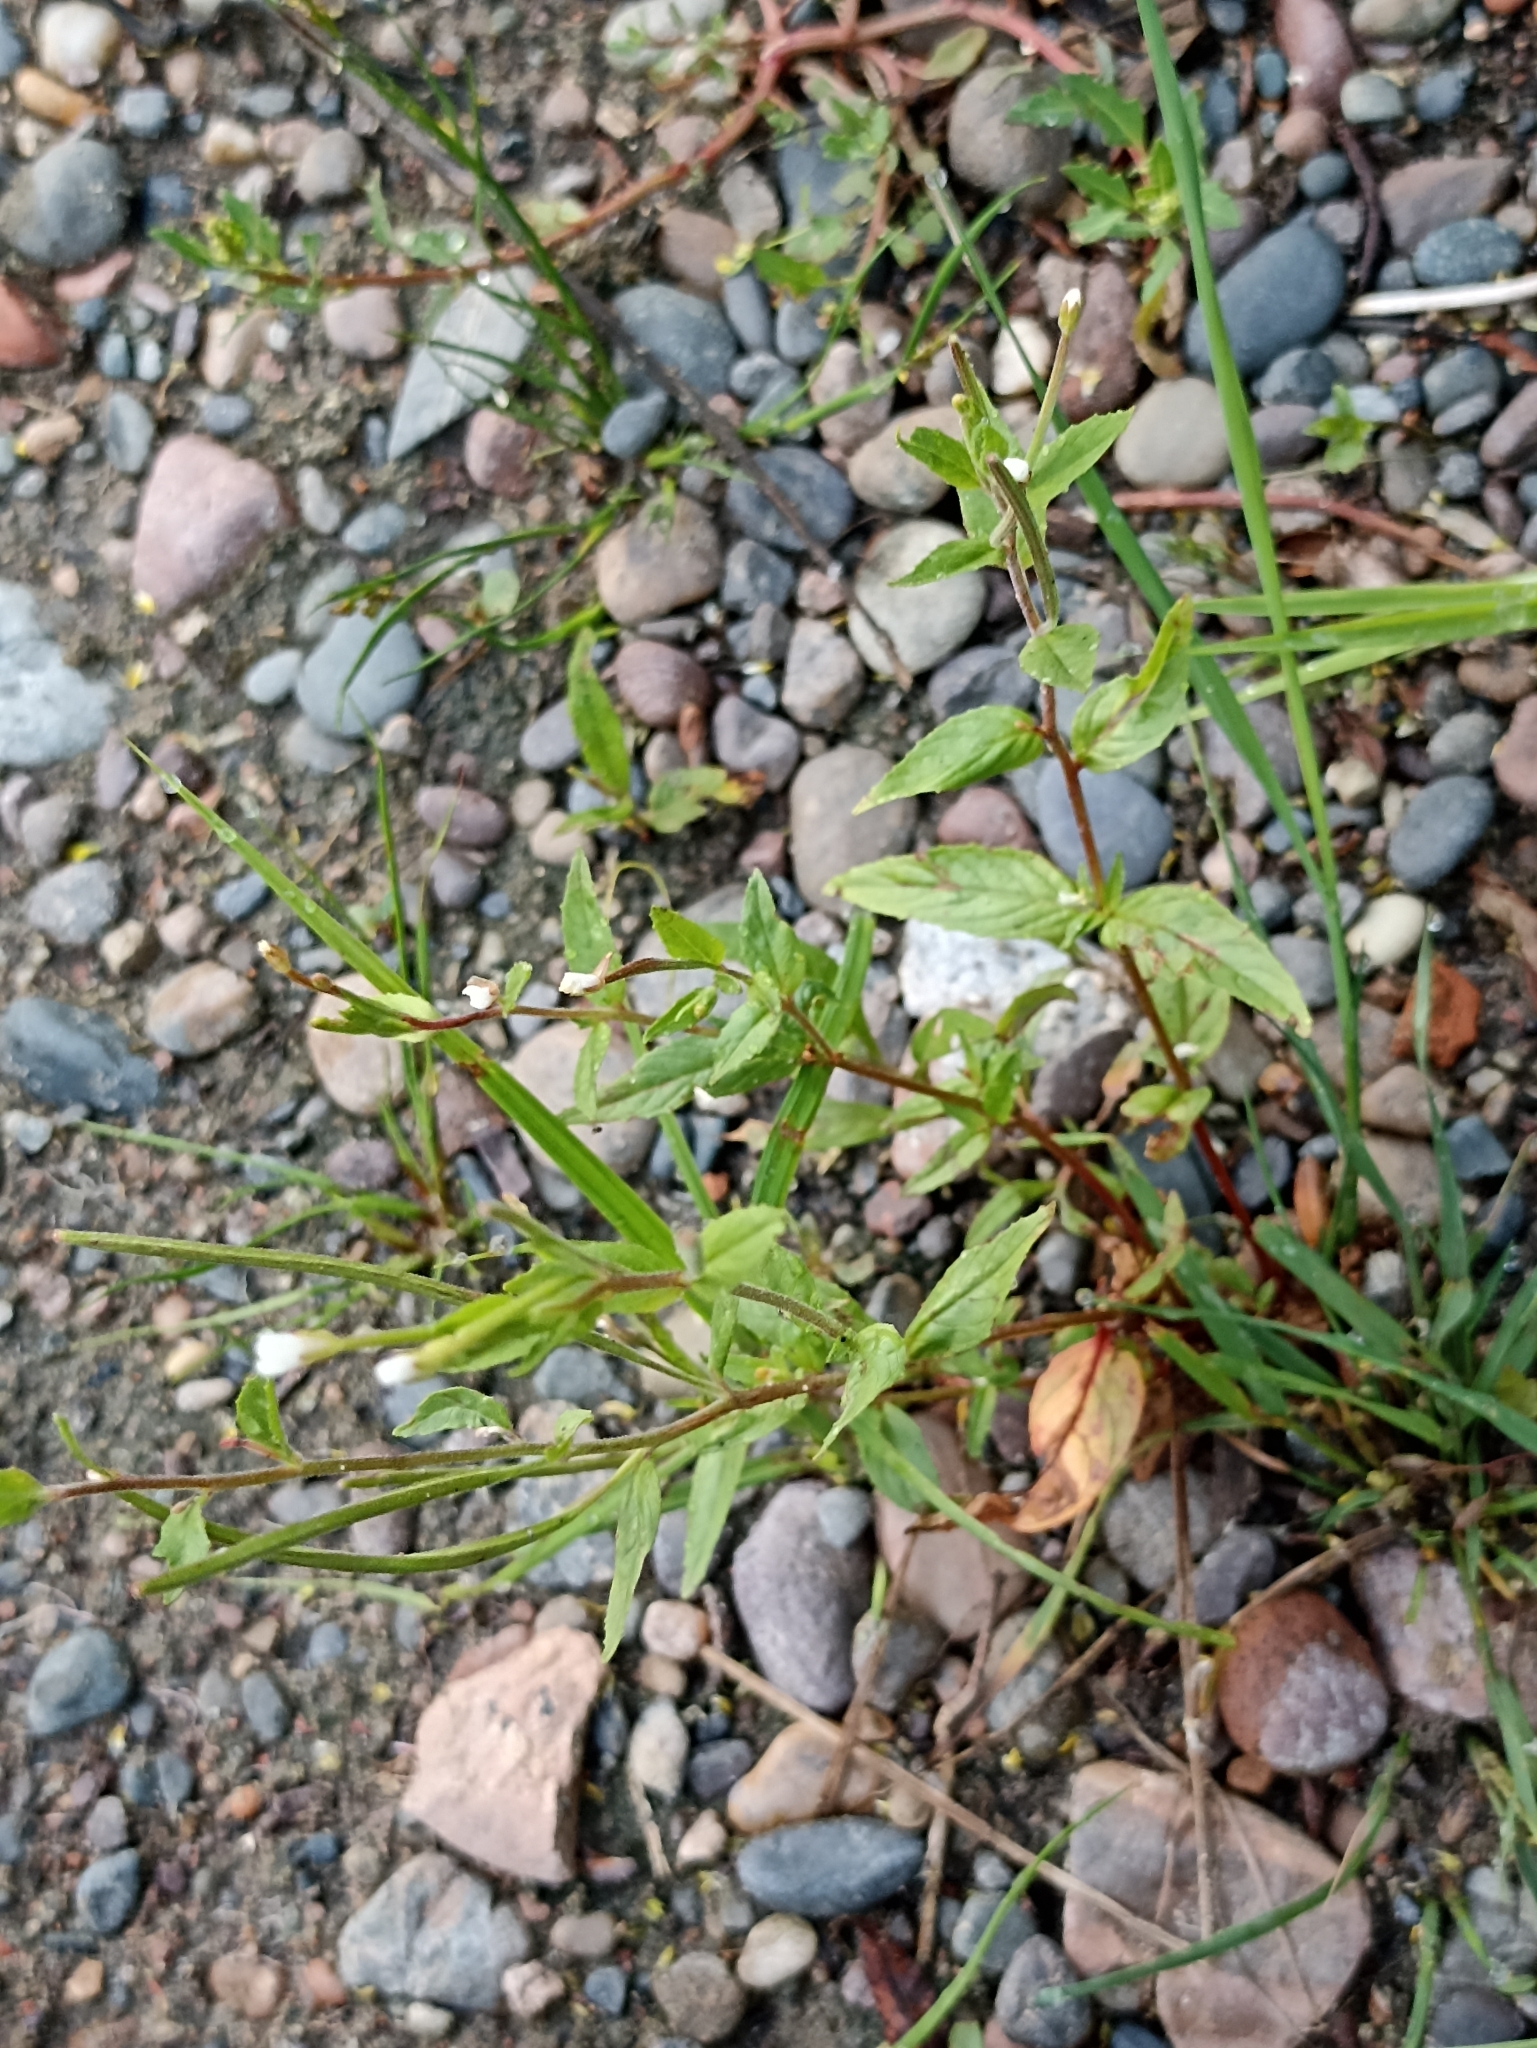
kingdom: Plantae
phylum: Tracheophyta
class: Magnoliopsida
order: Myrtales
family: Onagraceae
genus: Epilobium
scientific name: Epilobium pseudorubescens
